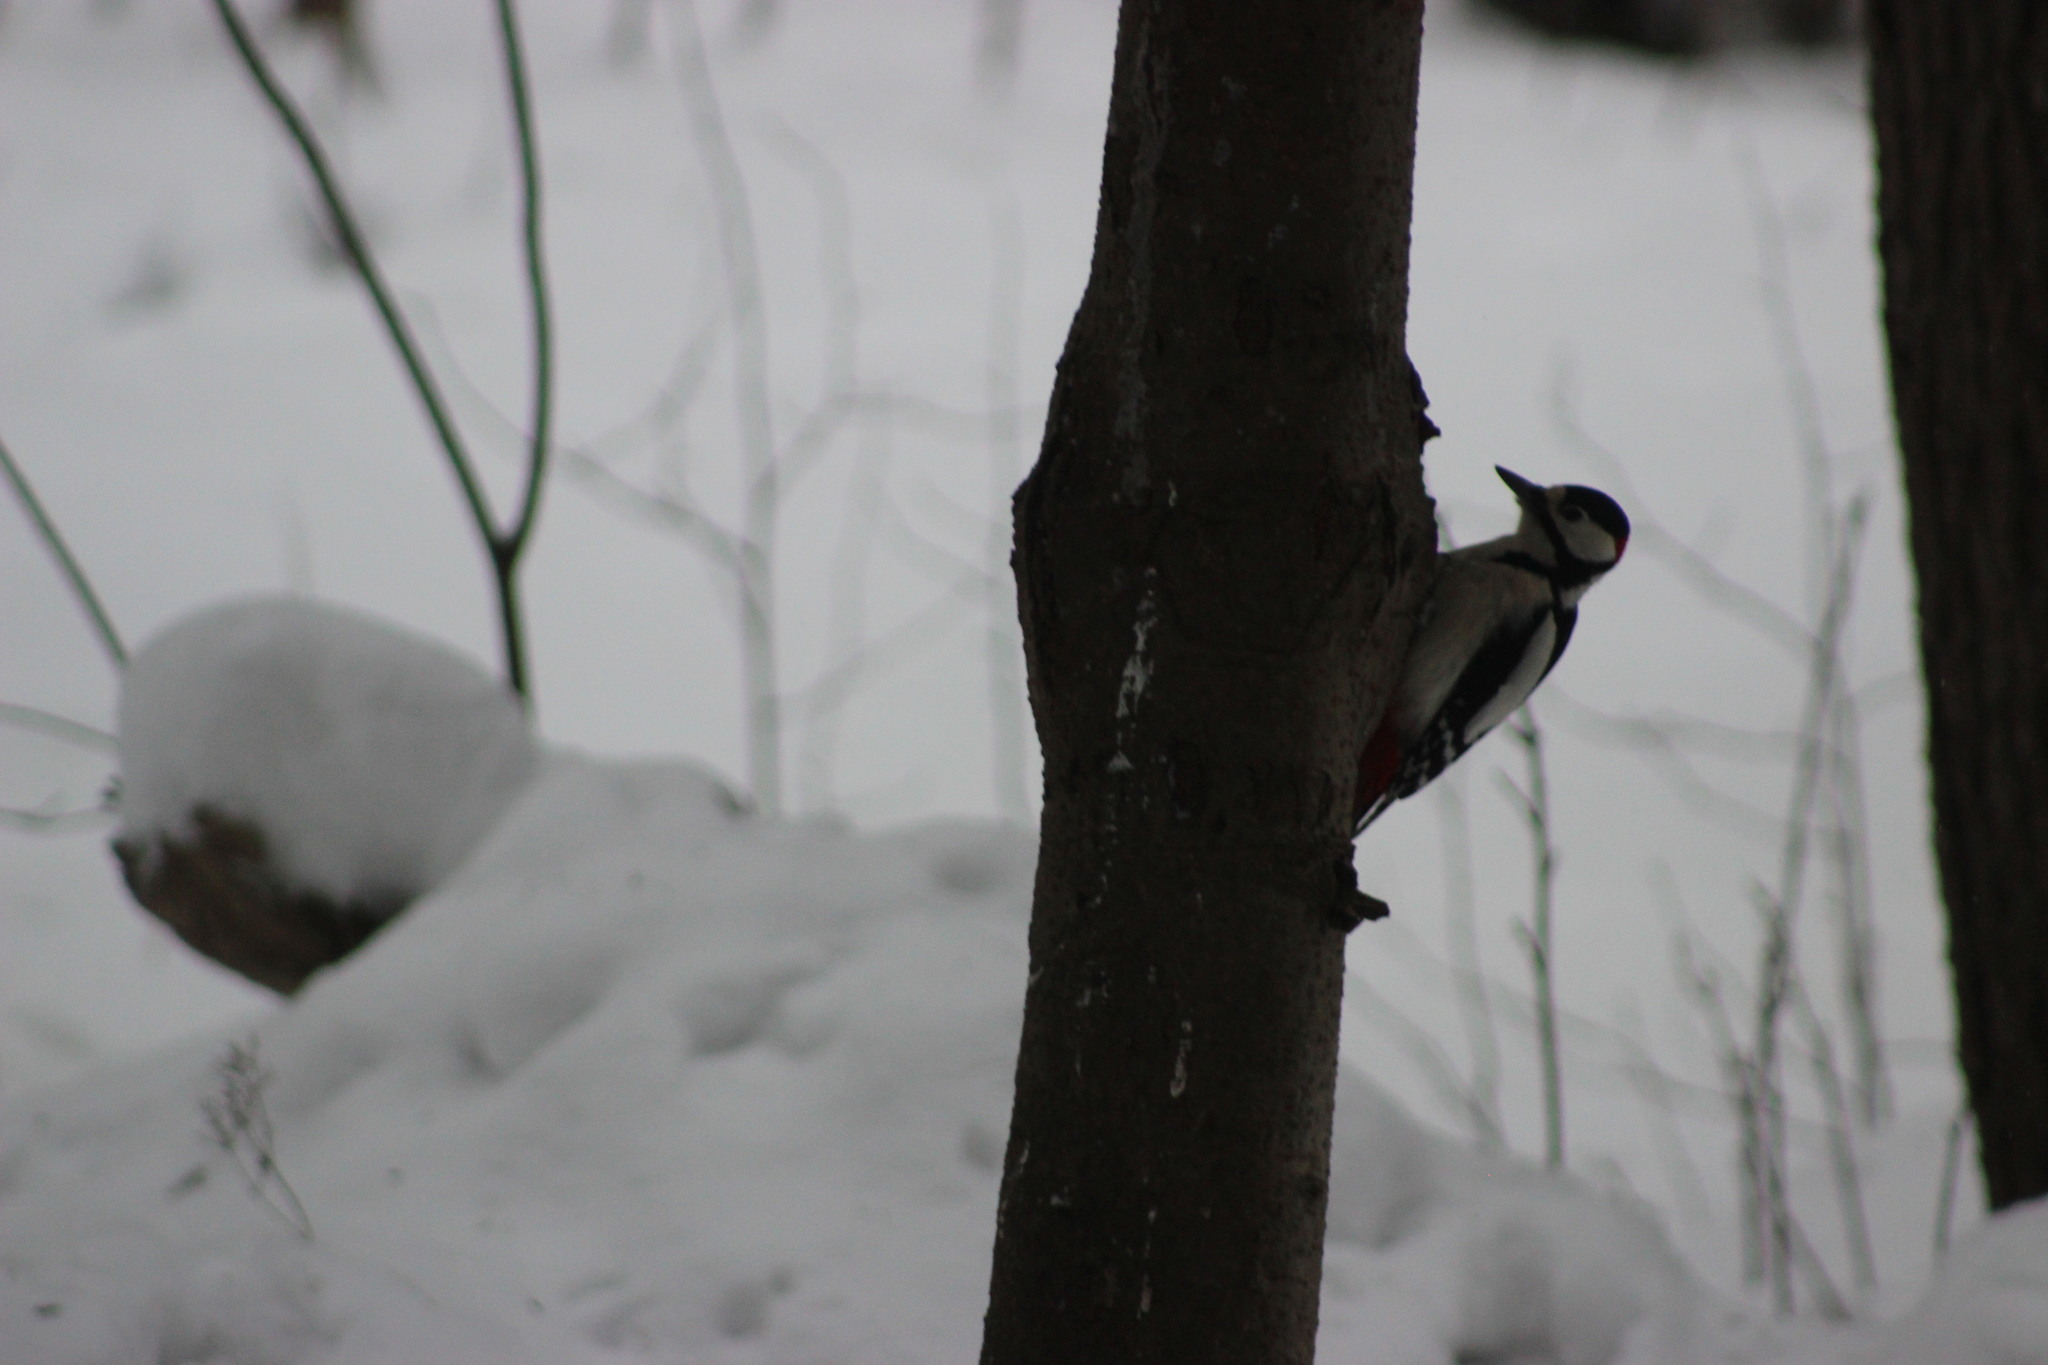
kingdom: Animalia
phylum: Chordata
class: Aves
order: Piciformes
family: Picidae
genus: Dendrocopos
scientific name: Dendrocopos major
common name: Great spotted woodpecker
